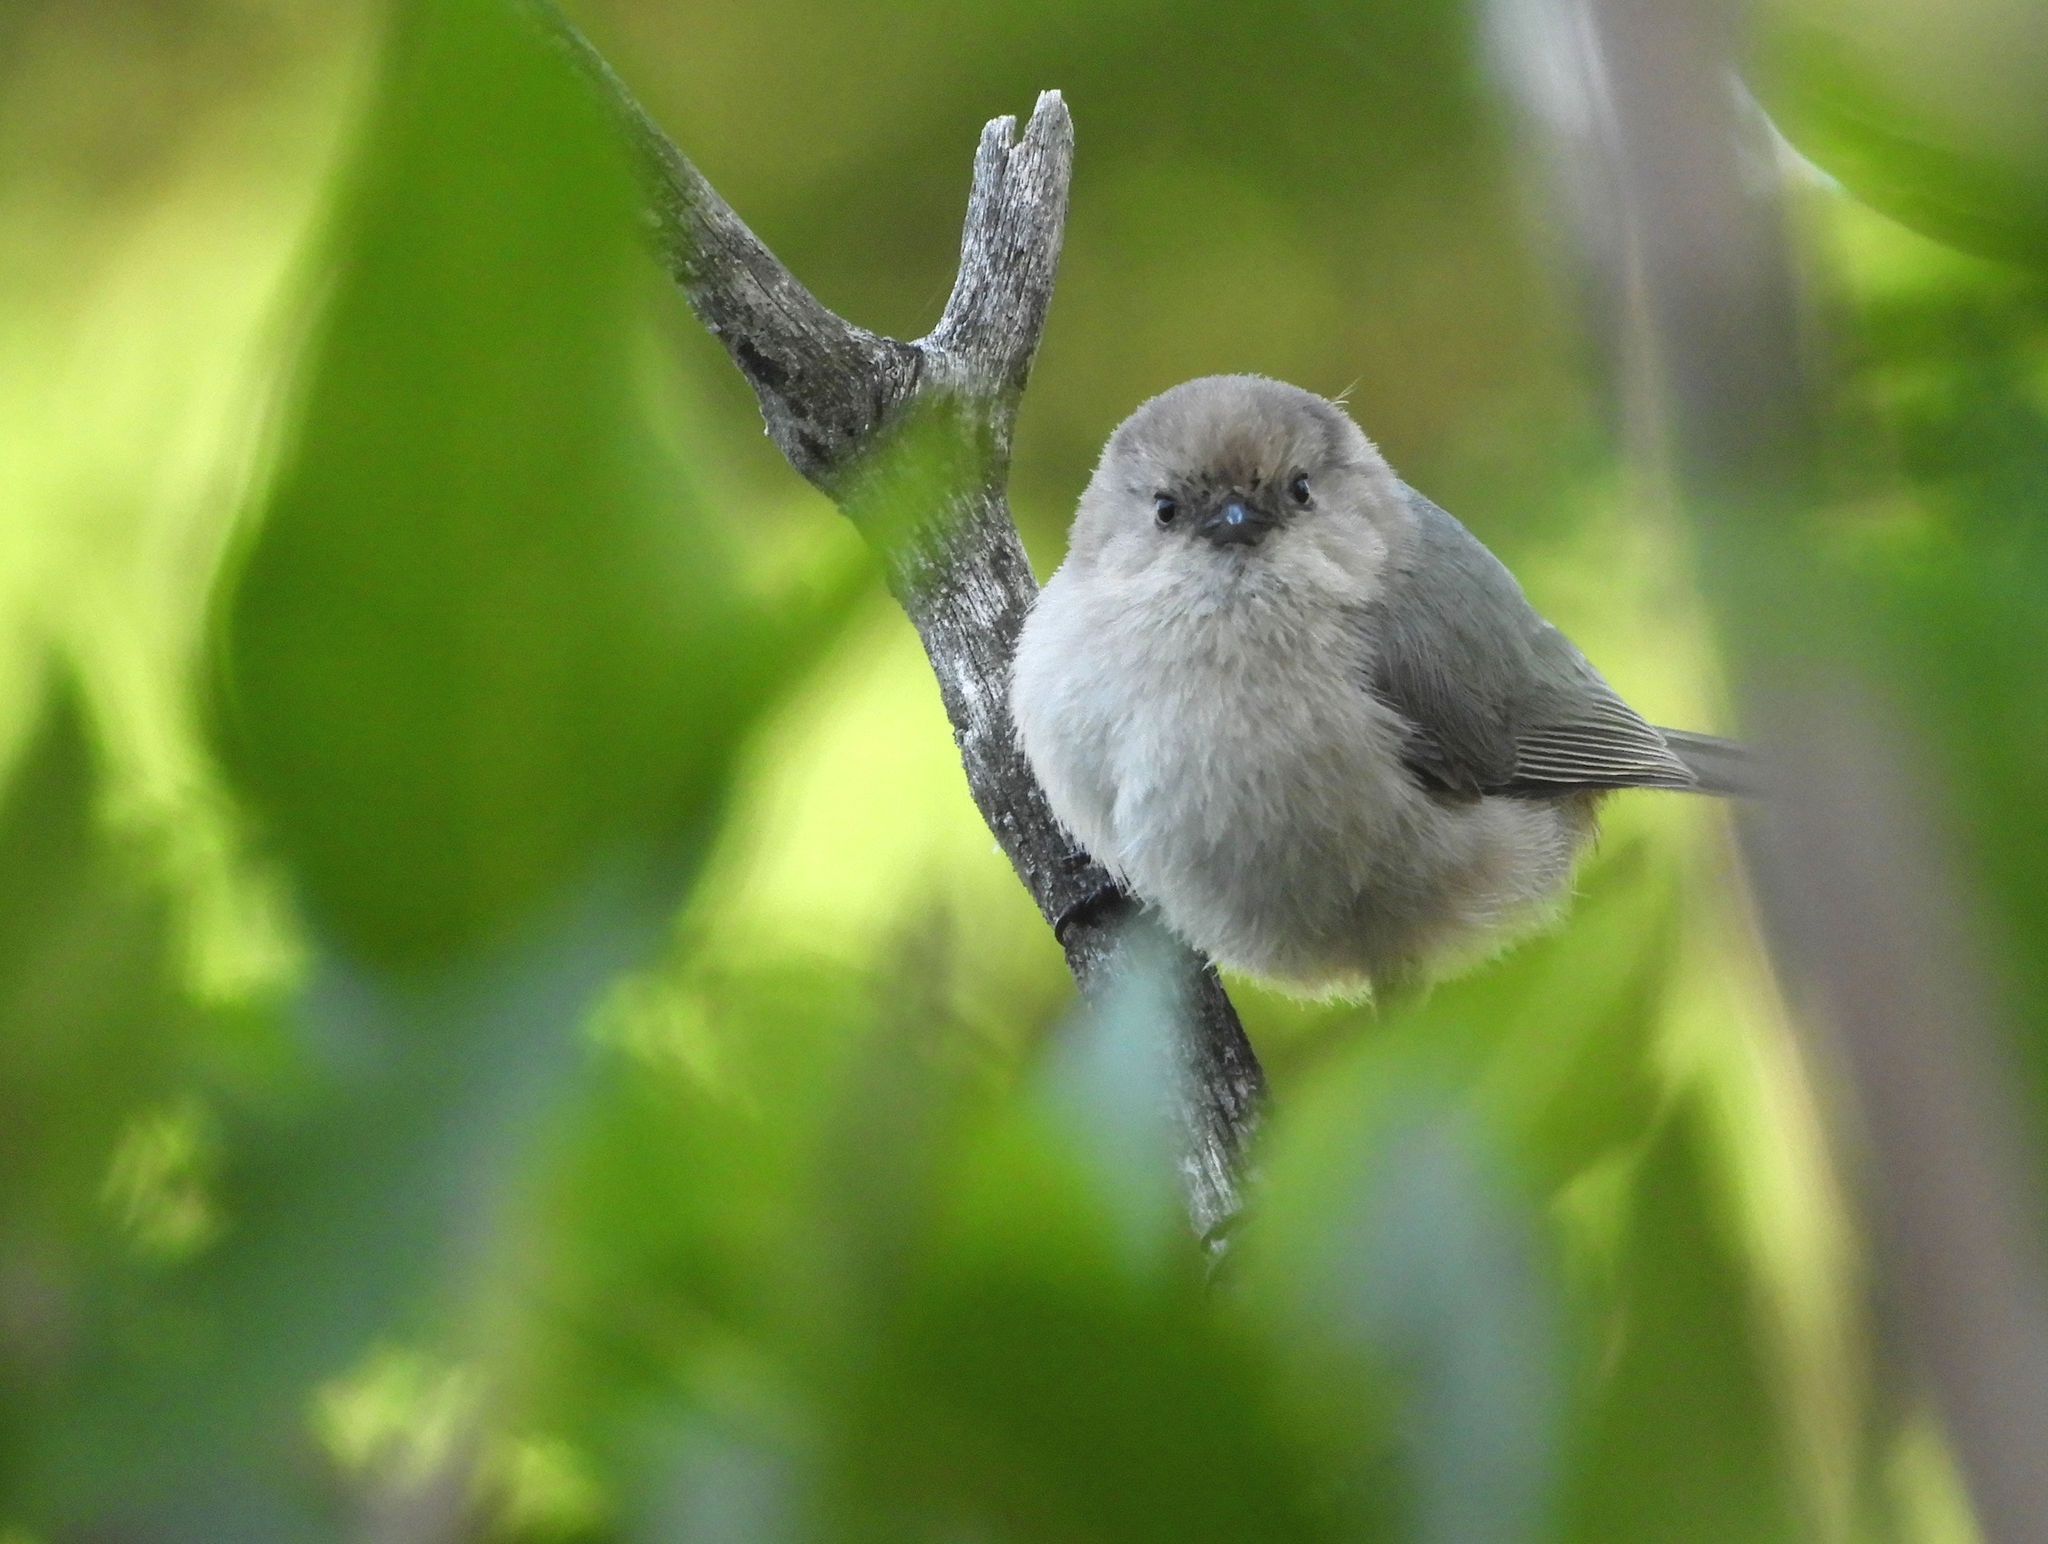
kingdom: Animalia
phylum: Chordata
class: Aves
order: Passeriformes
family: Aegithalidae
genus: Psaltriparus
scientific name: Psaltriparus minimus
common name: American bushtit
